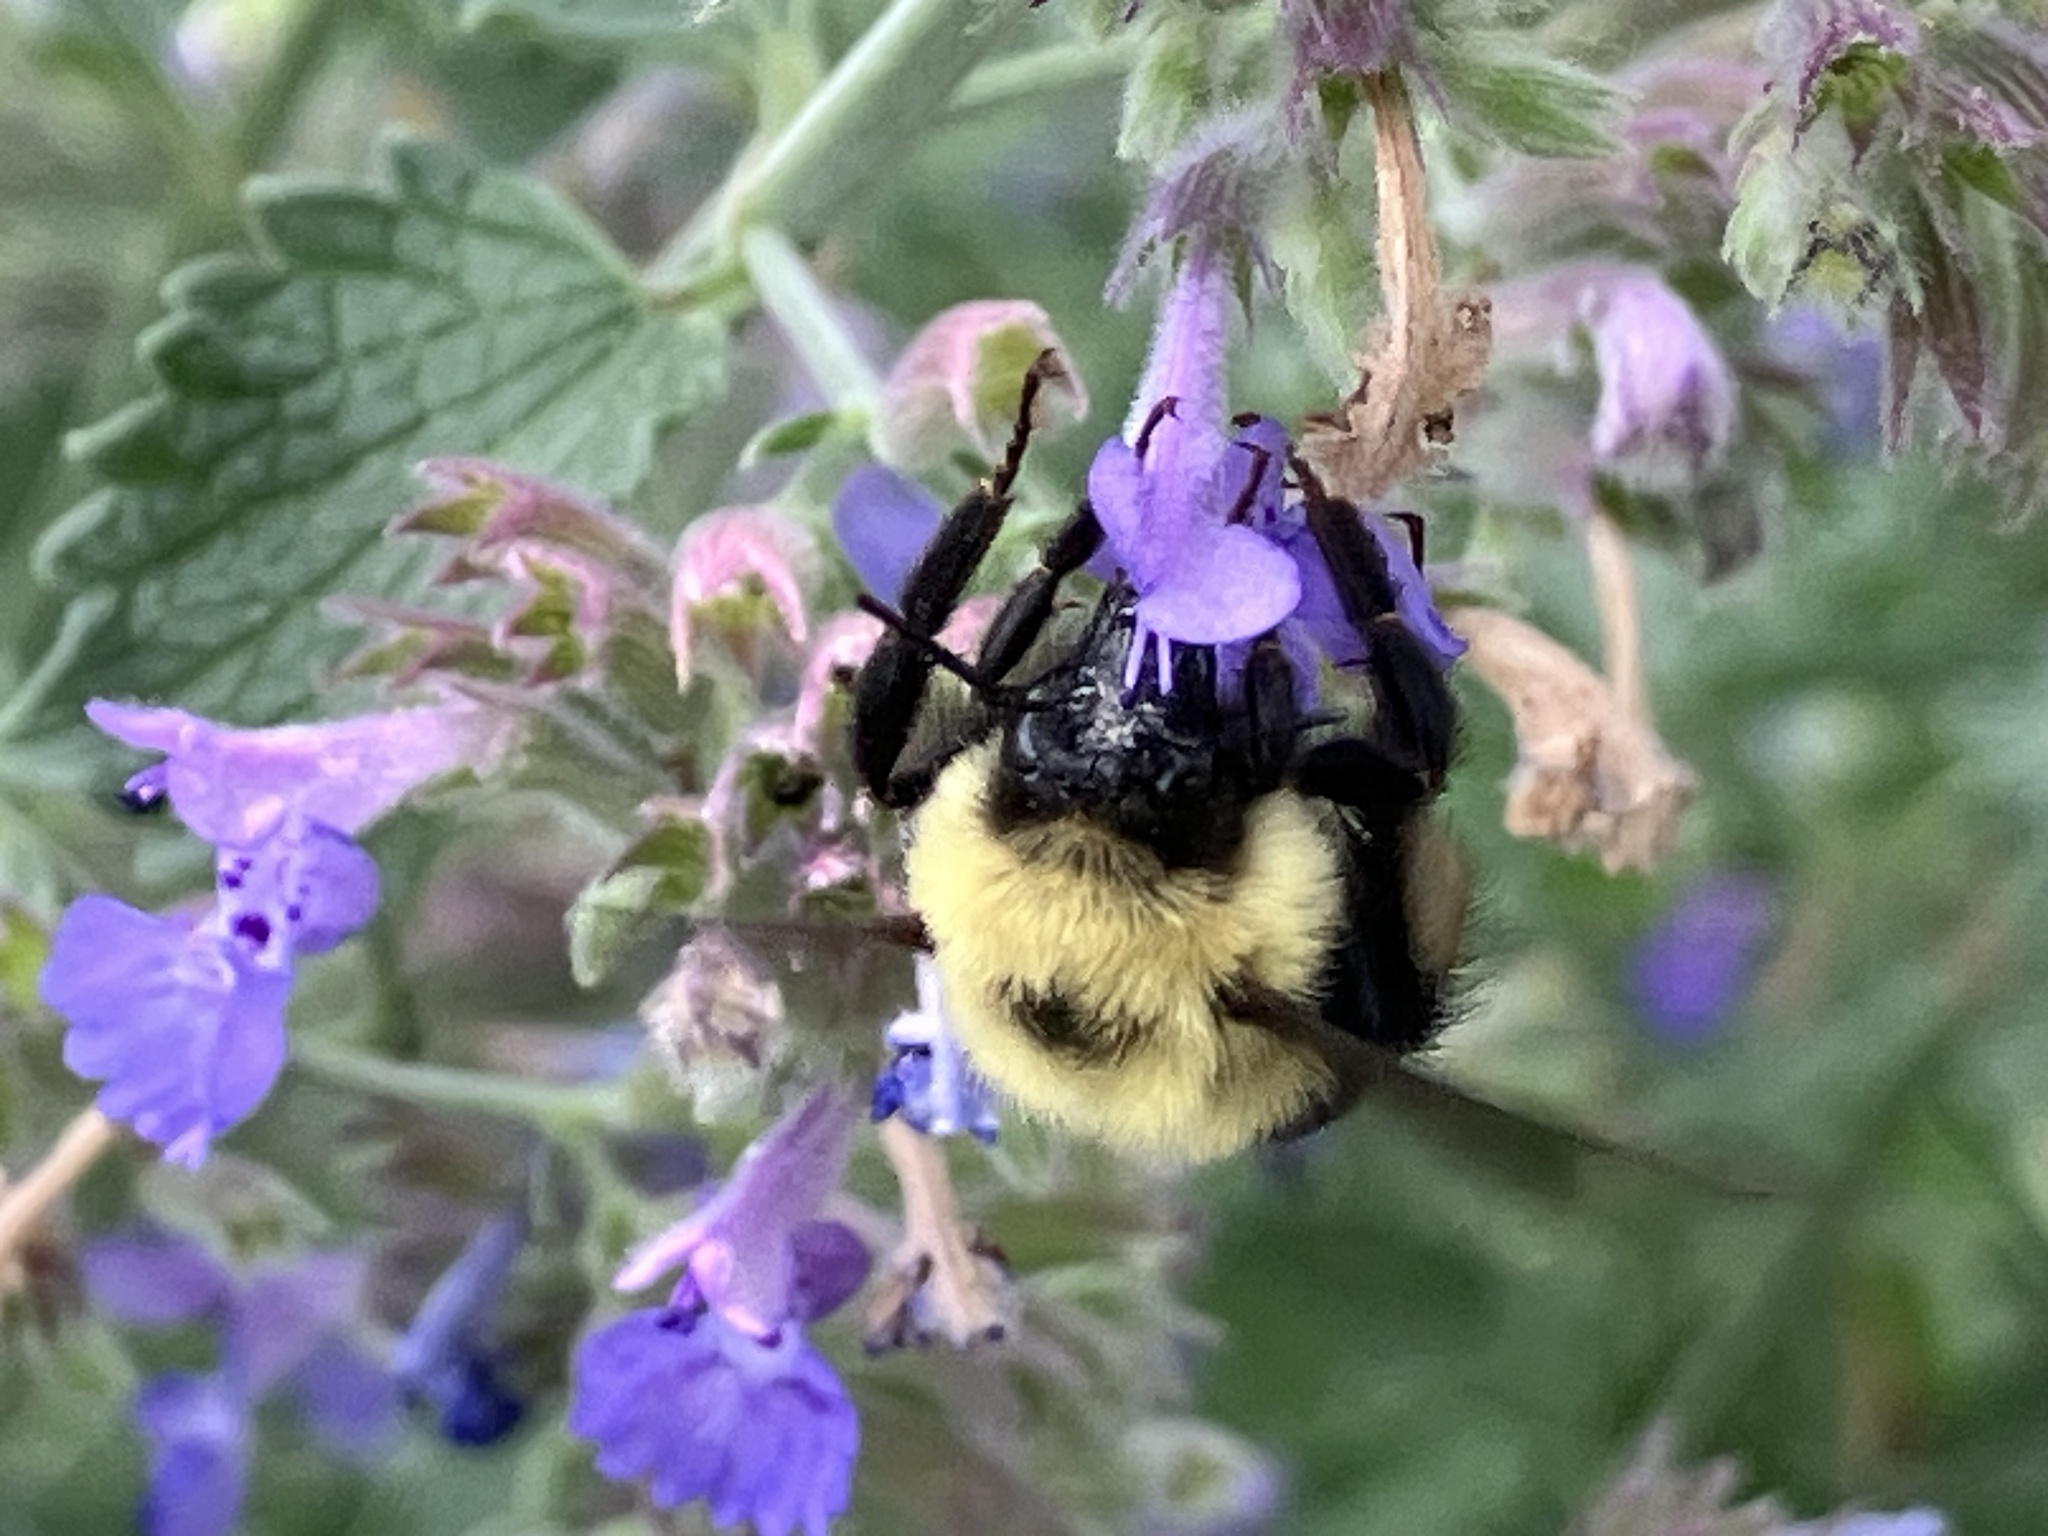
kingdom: Animalia
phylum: Arthropoda
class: Insecta
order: Hymenoptera
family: Apidae
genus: Bombus
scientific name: Bombus bimaculatus
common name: Two-spotted bumble bee
